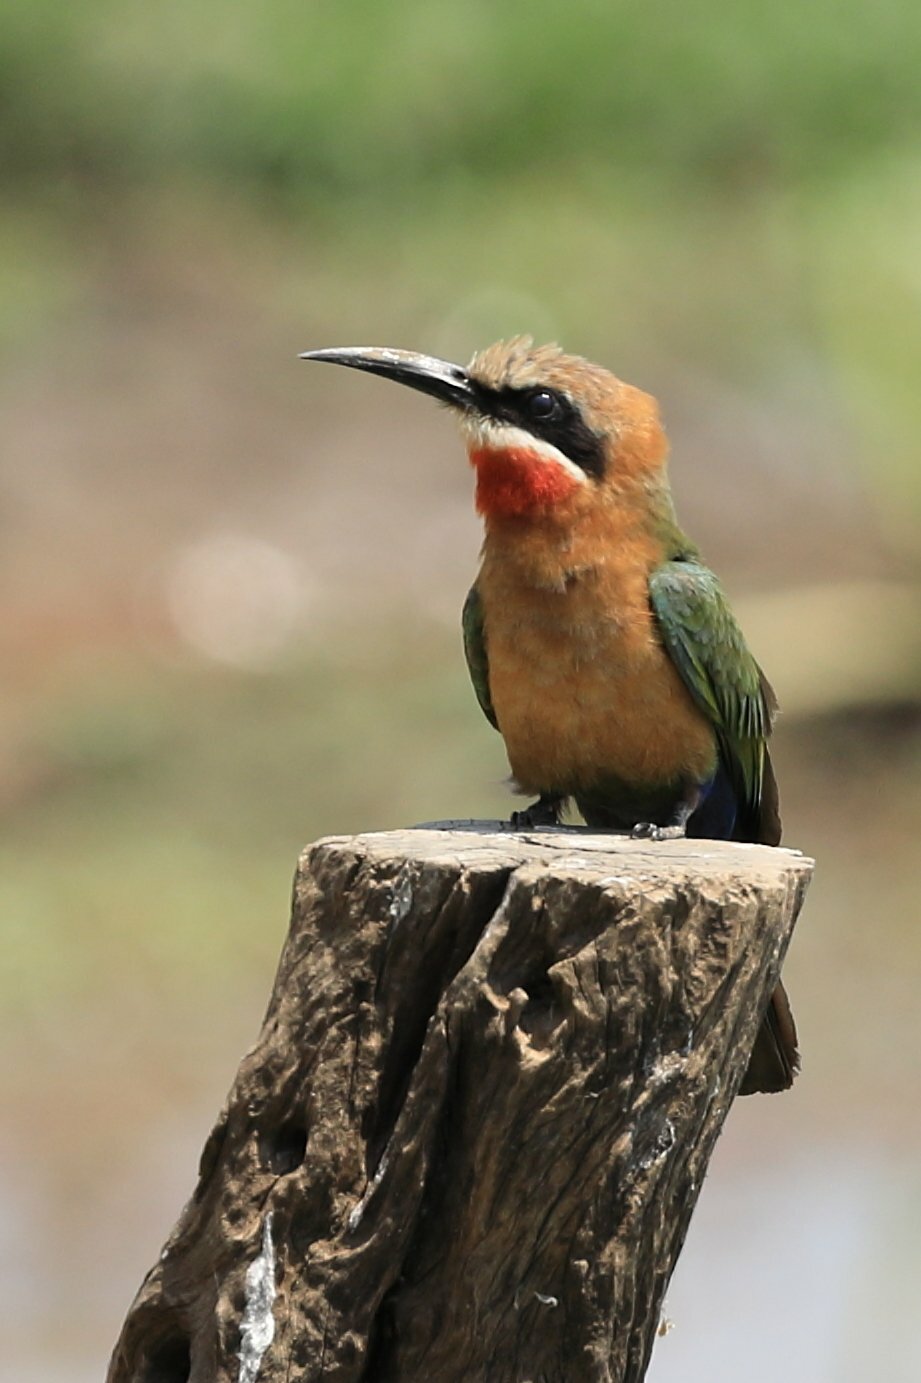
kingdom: Animalia
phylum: Chordata
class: Aves
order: Coraciiformes
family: Meropidae
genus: Merops
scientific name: Merops bullockoides
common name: White-fronted bee-eater
